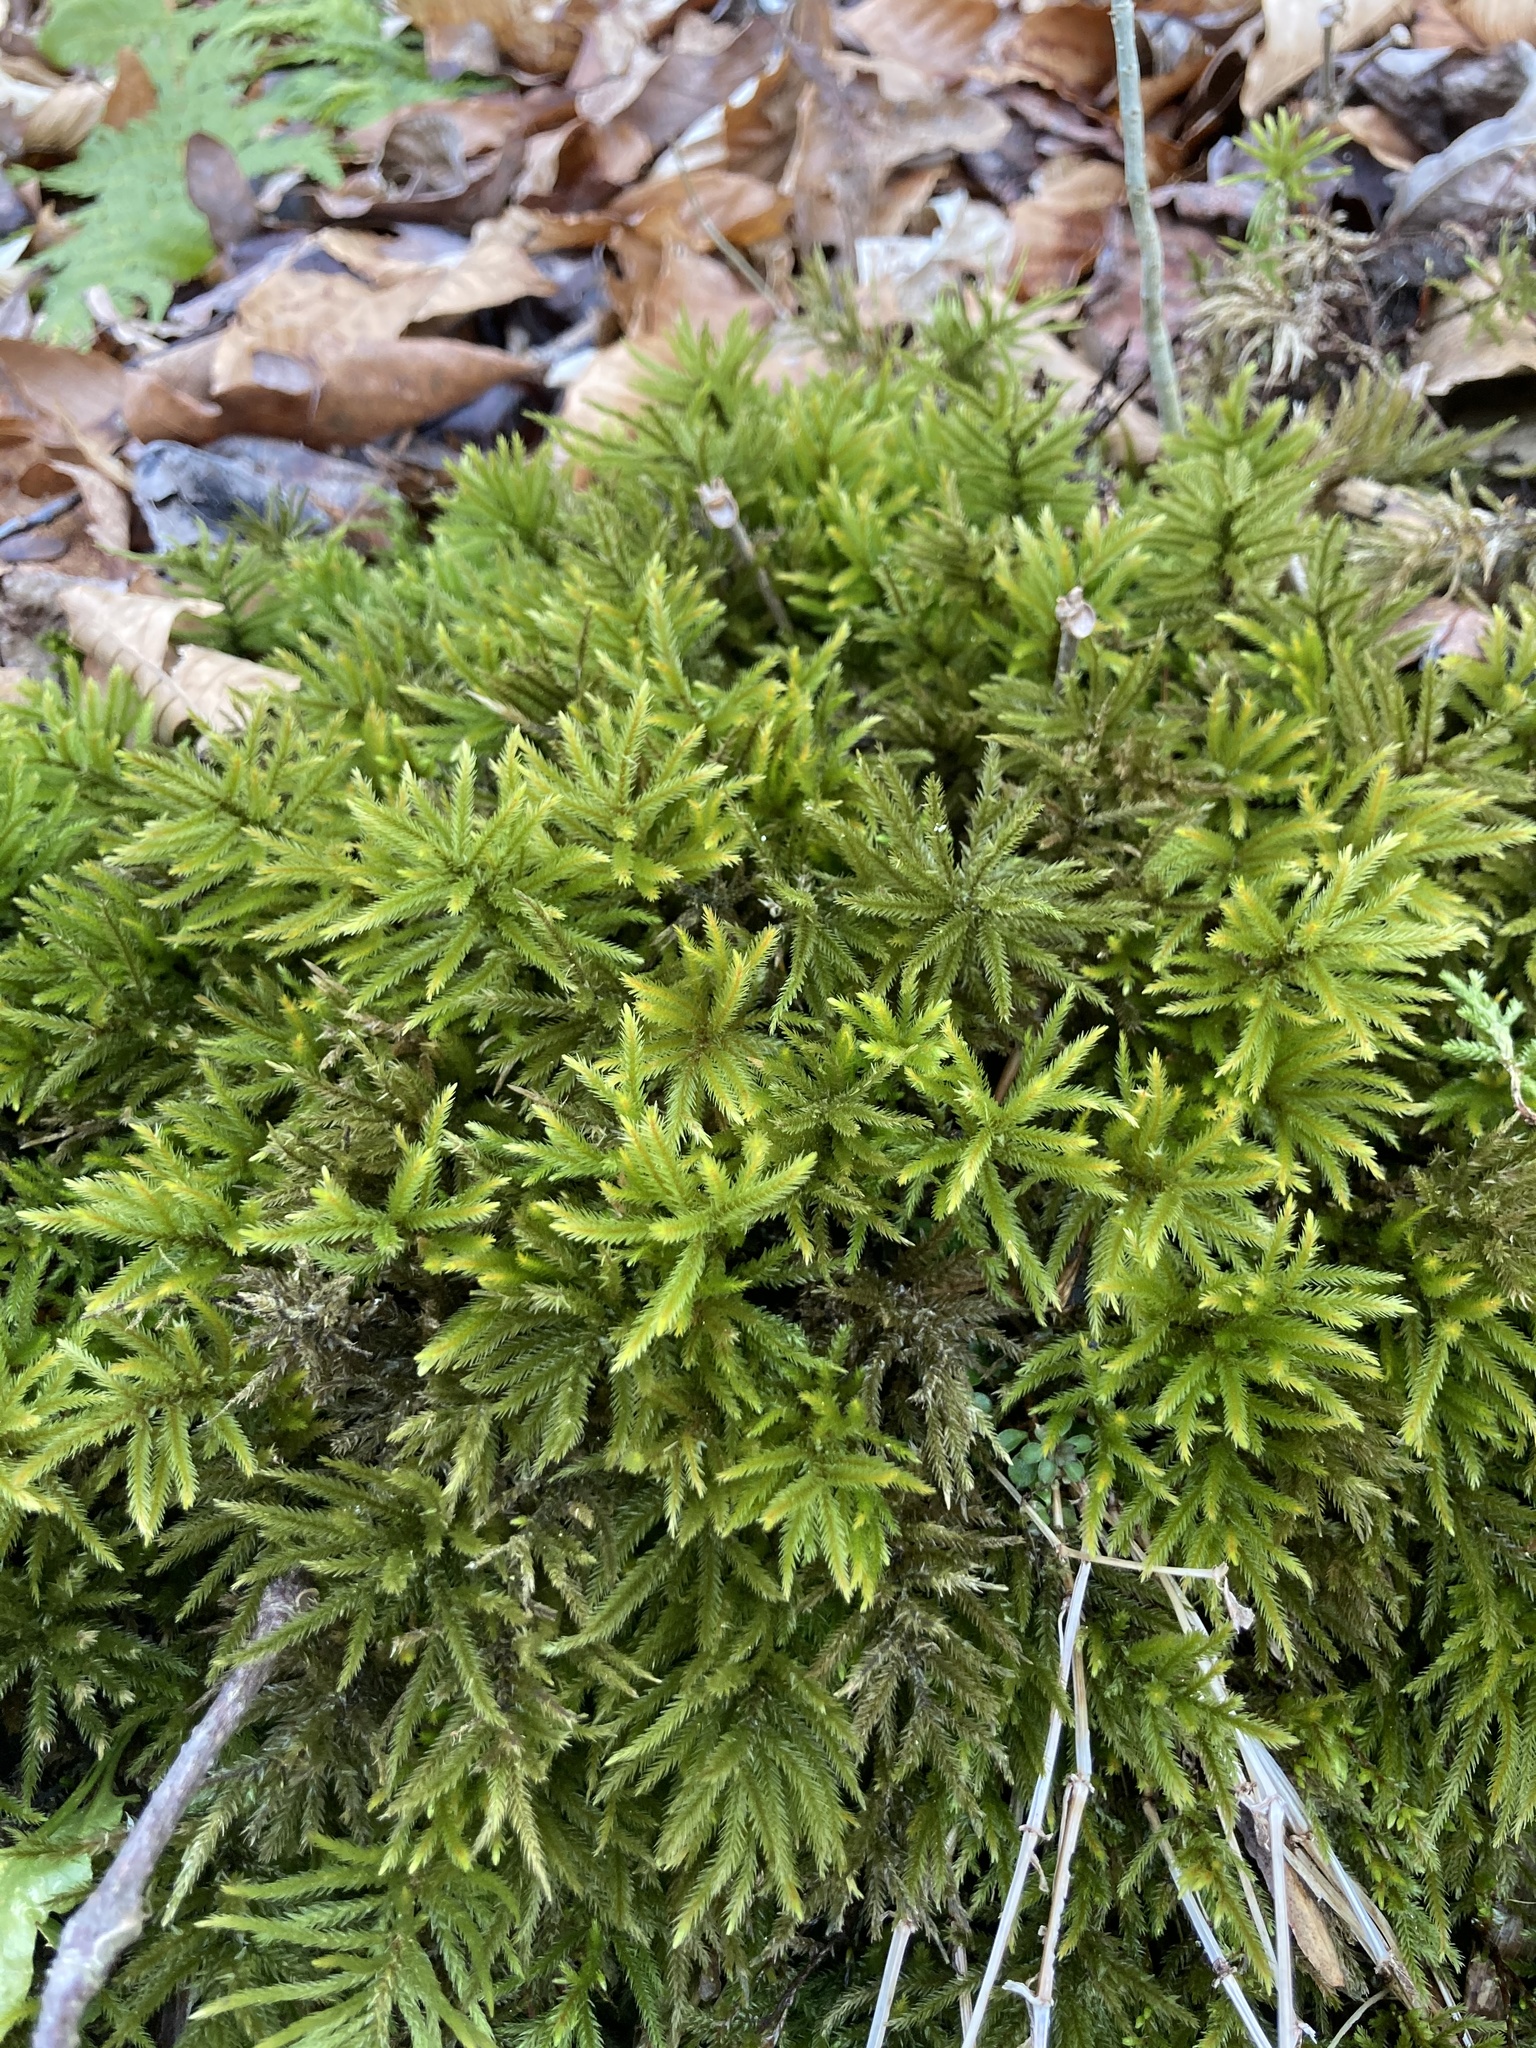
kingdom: Plantae
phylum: Bryophyta
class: Bryopsida
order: Hypnales
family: Climaciaceae
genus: Climacium
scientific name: Climacium americanum
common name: American tree moss
